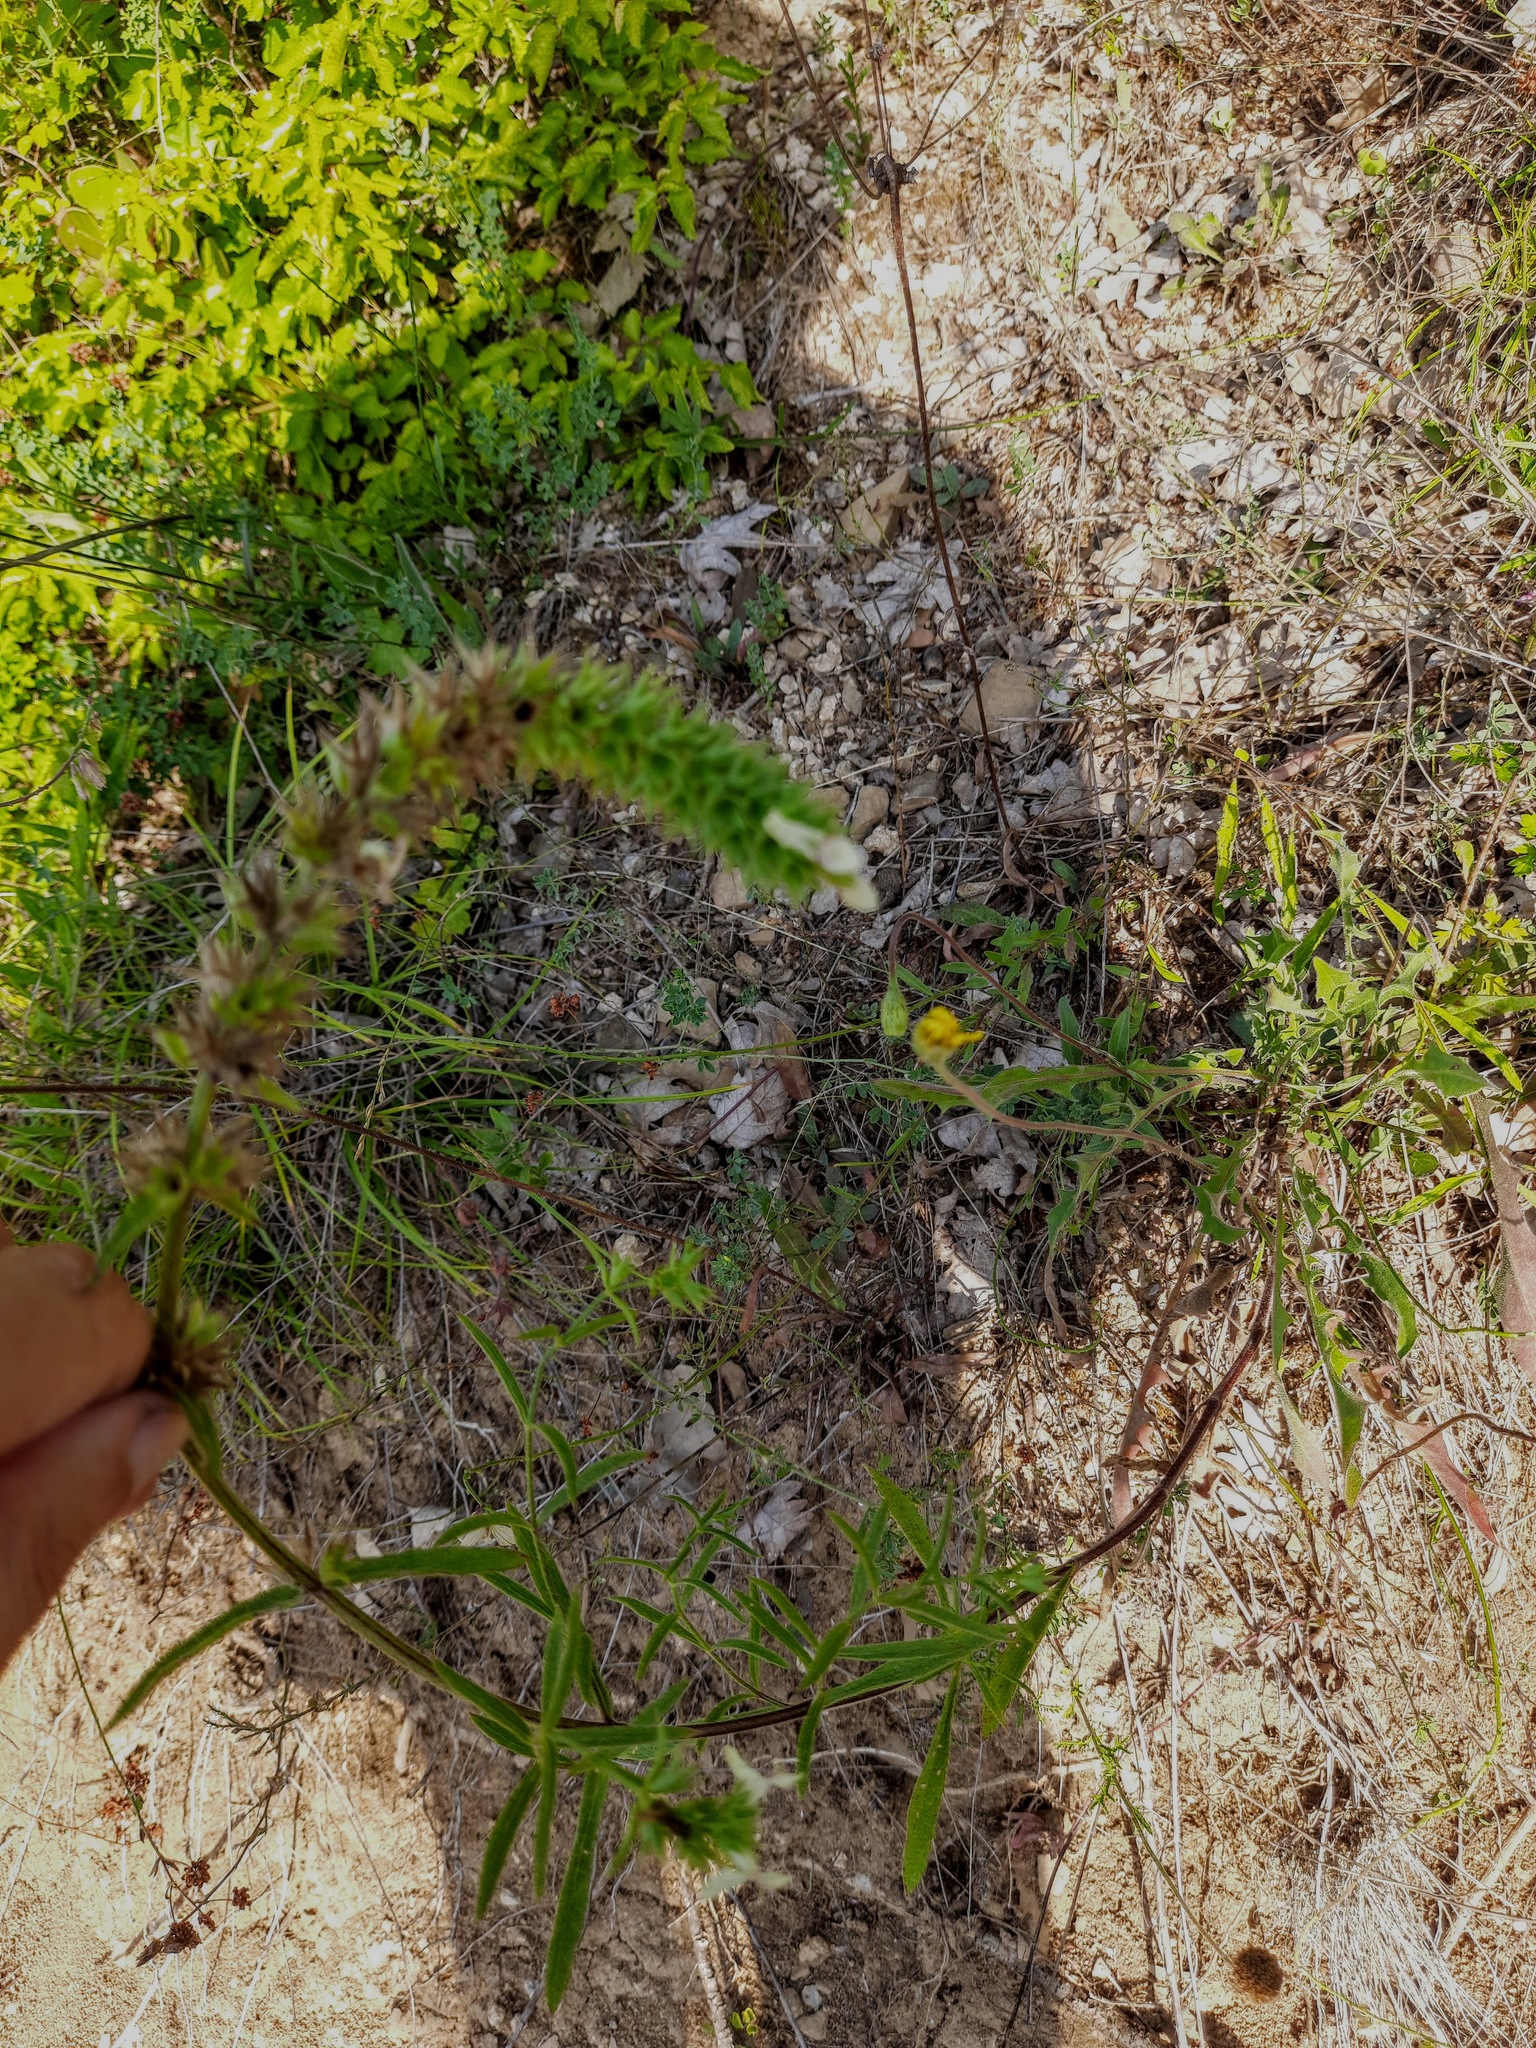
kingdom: Plantae
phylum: Tracheophyta
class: Magnoliopsida
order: Lamiales
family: Lamiaceae
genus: Stachys
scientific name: Stachys atherocalyx
